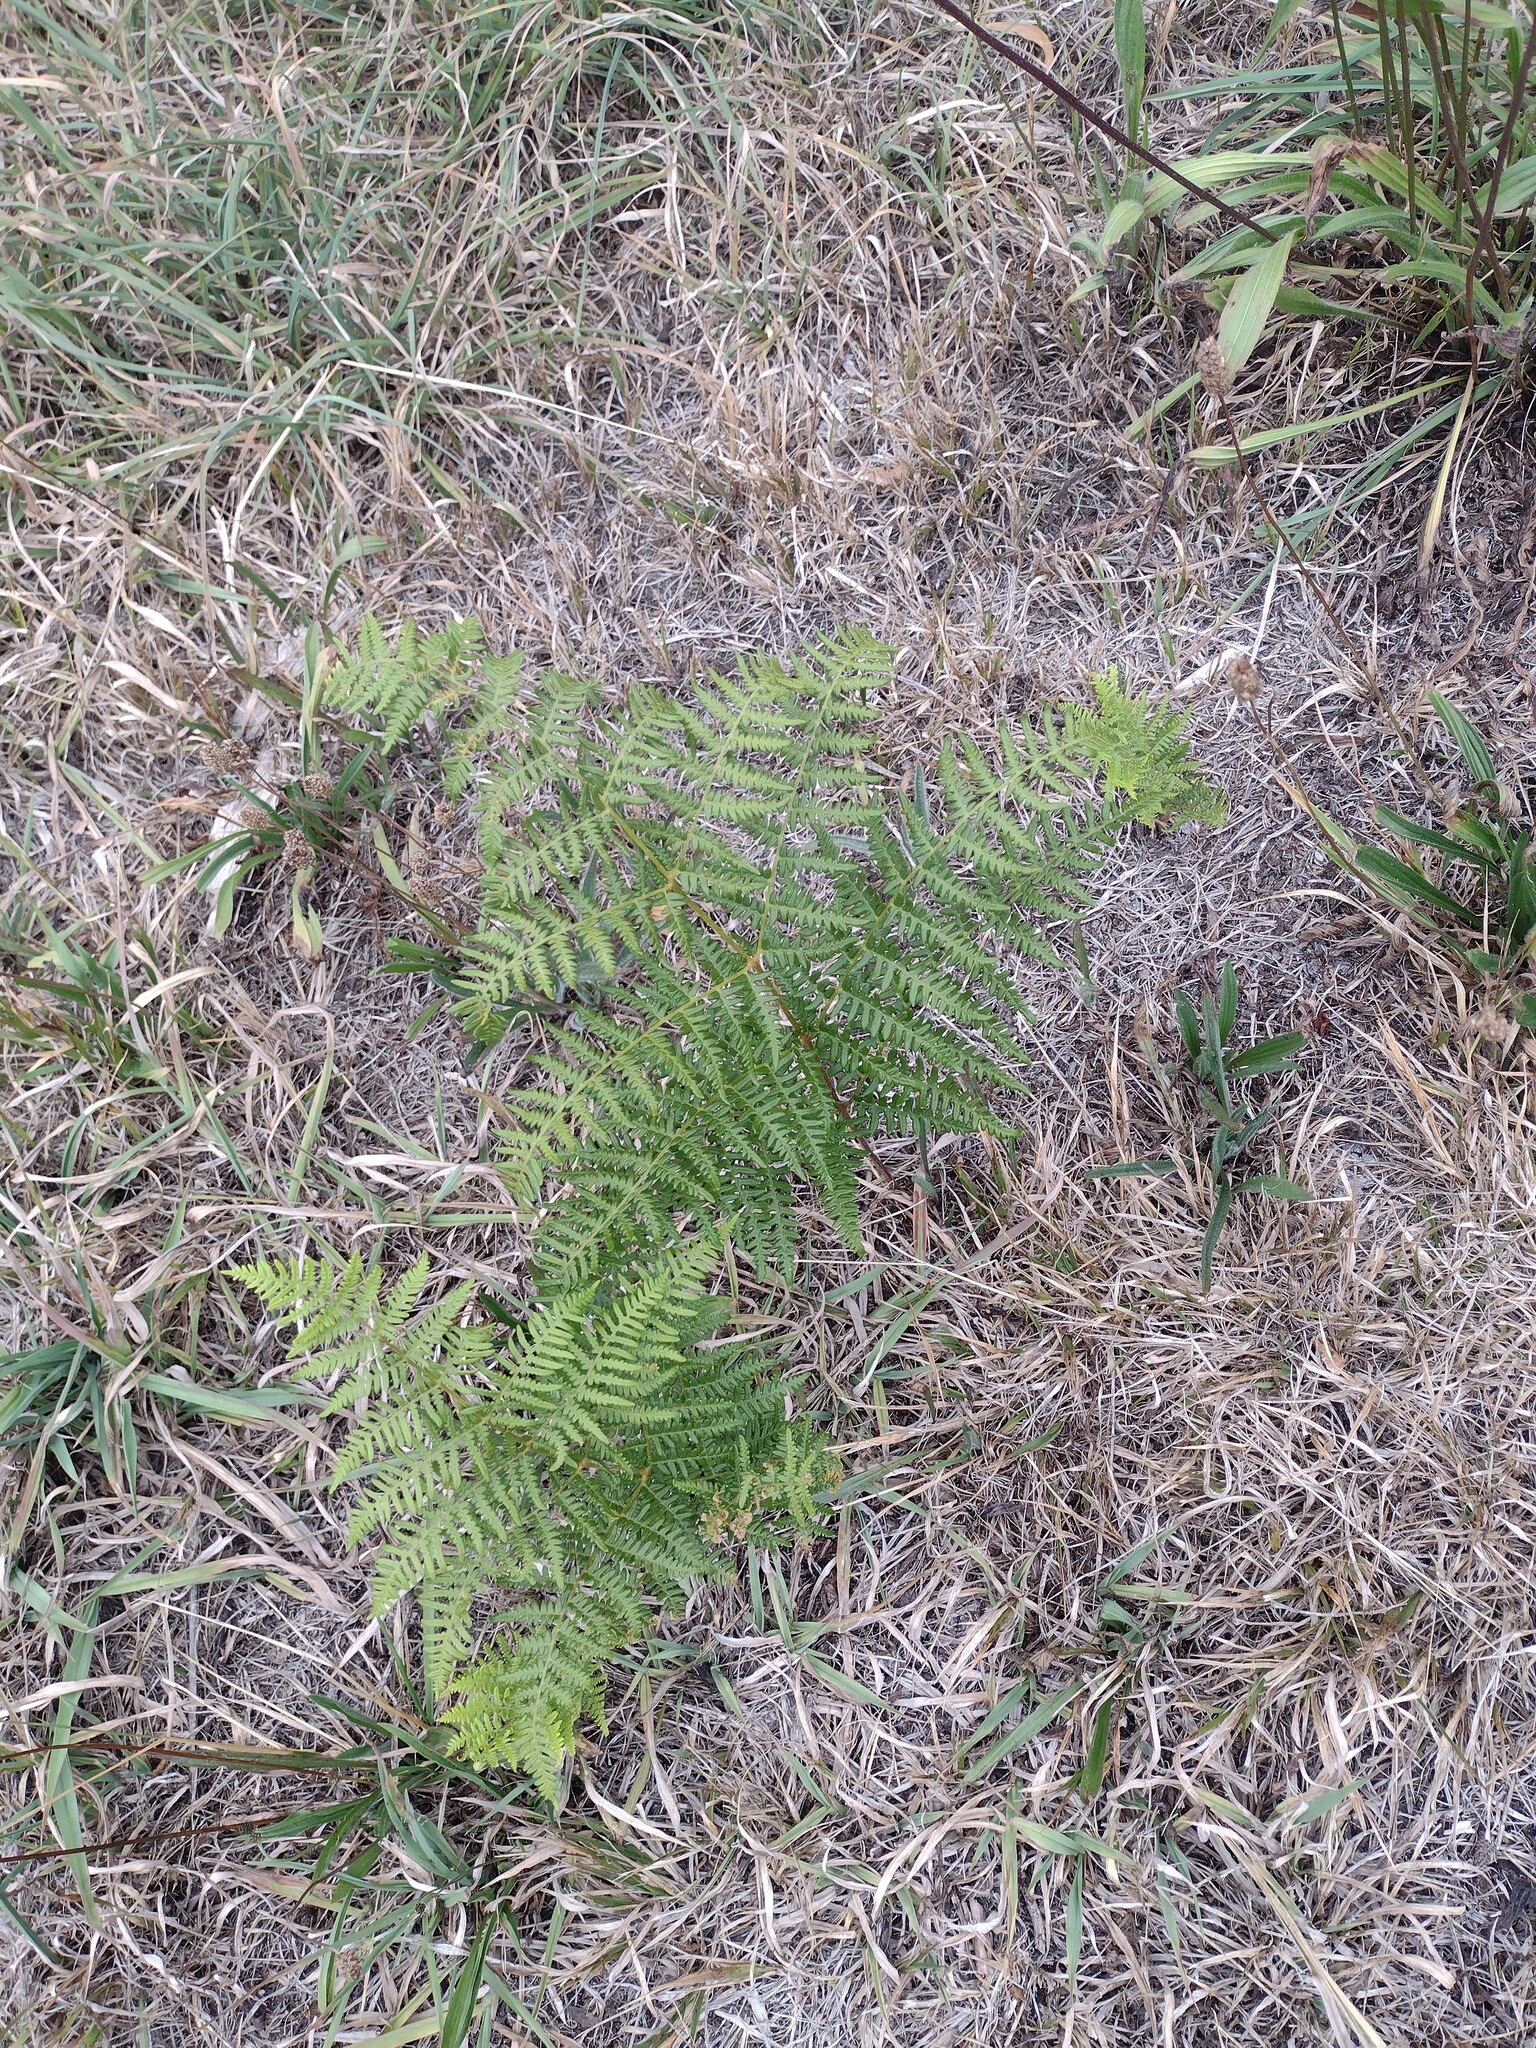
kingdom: Plantae
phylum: Tracheophyta
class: Polypodiopsida
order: Polypodiales
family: Dennstaedtiaceae
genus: Pteridium
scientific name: Pteridium aquilinum
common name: Bracken
